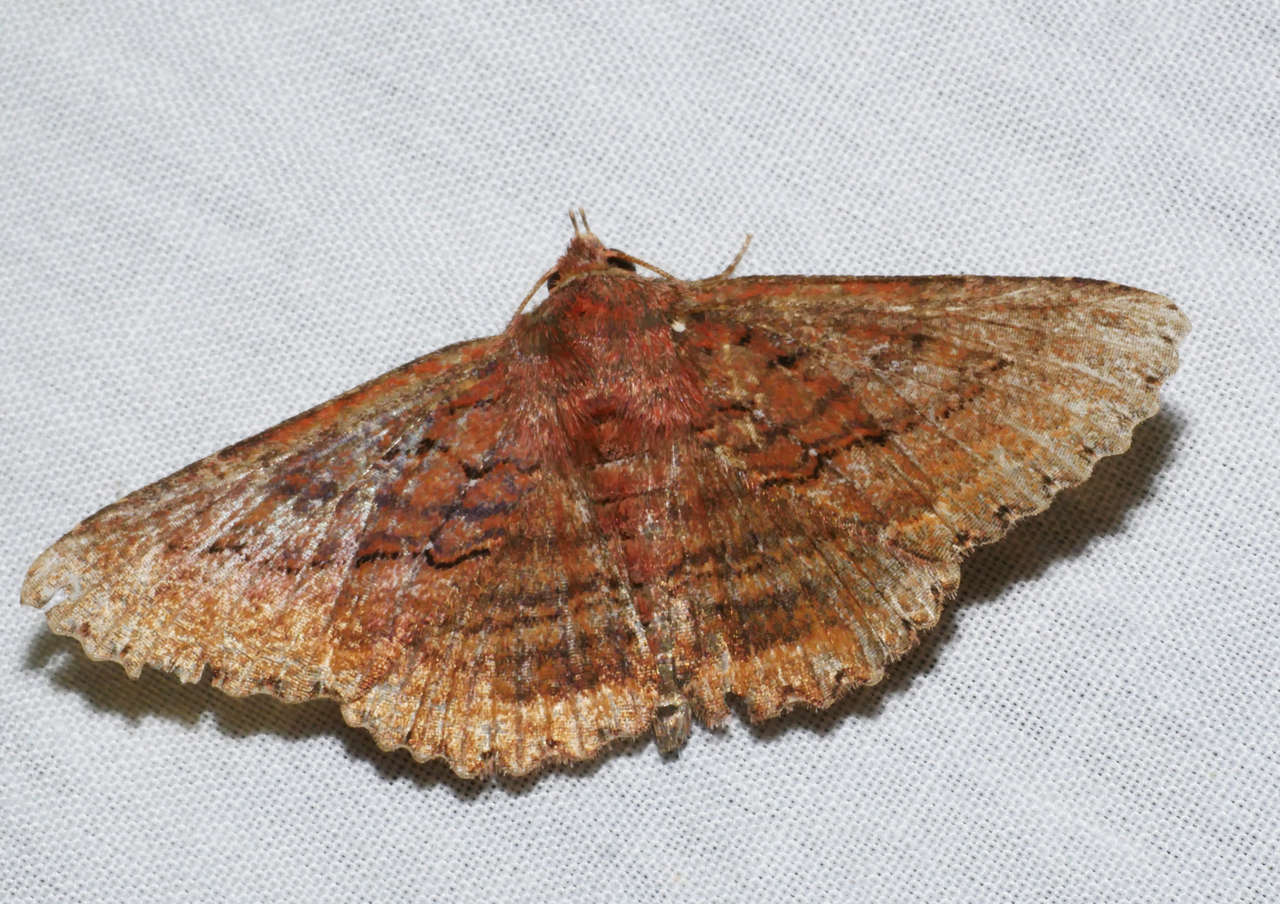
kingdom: Animalia
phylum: Arthropoda
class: Insecta
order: Lepidoptera
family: Erebidae
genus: Praxis
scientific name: Praxis porphyretica
